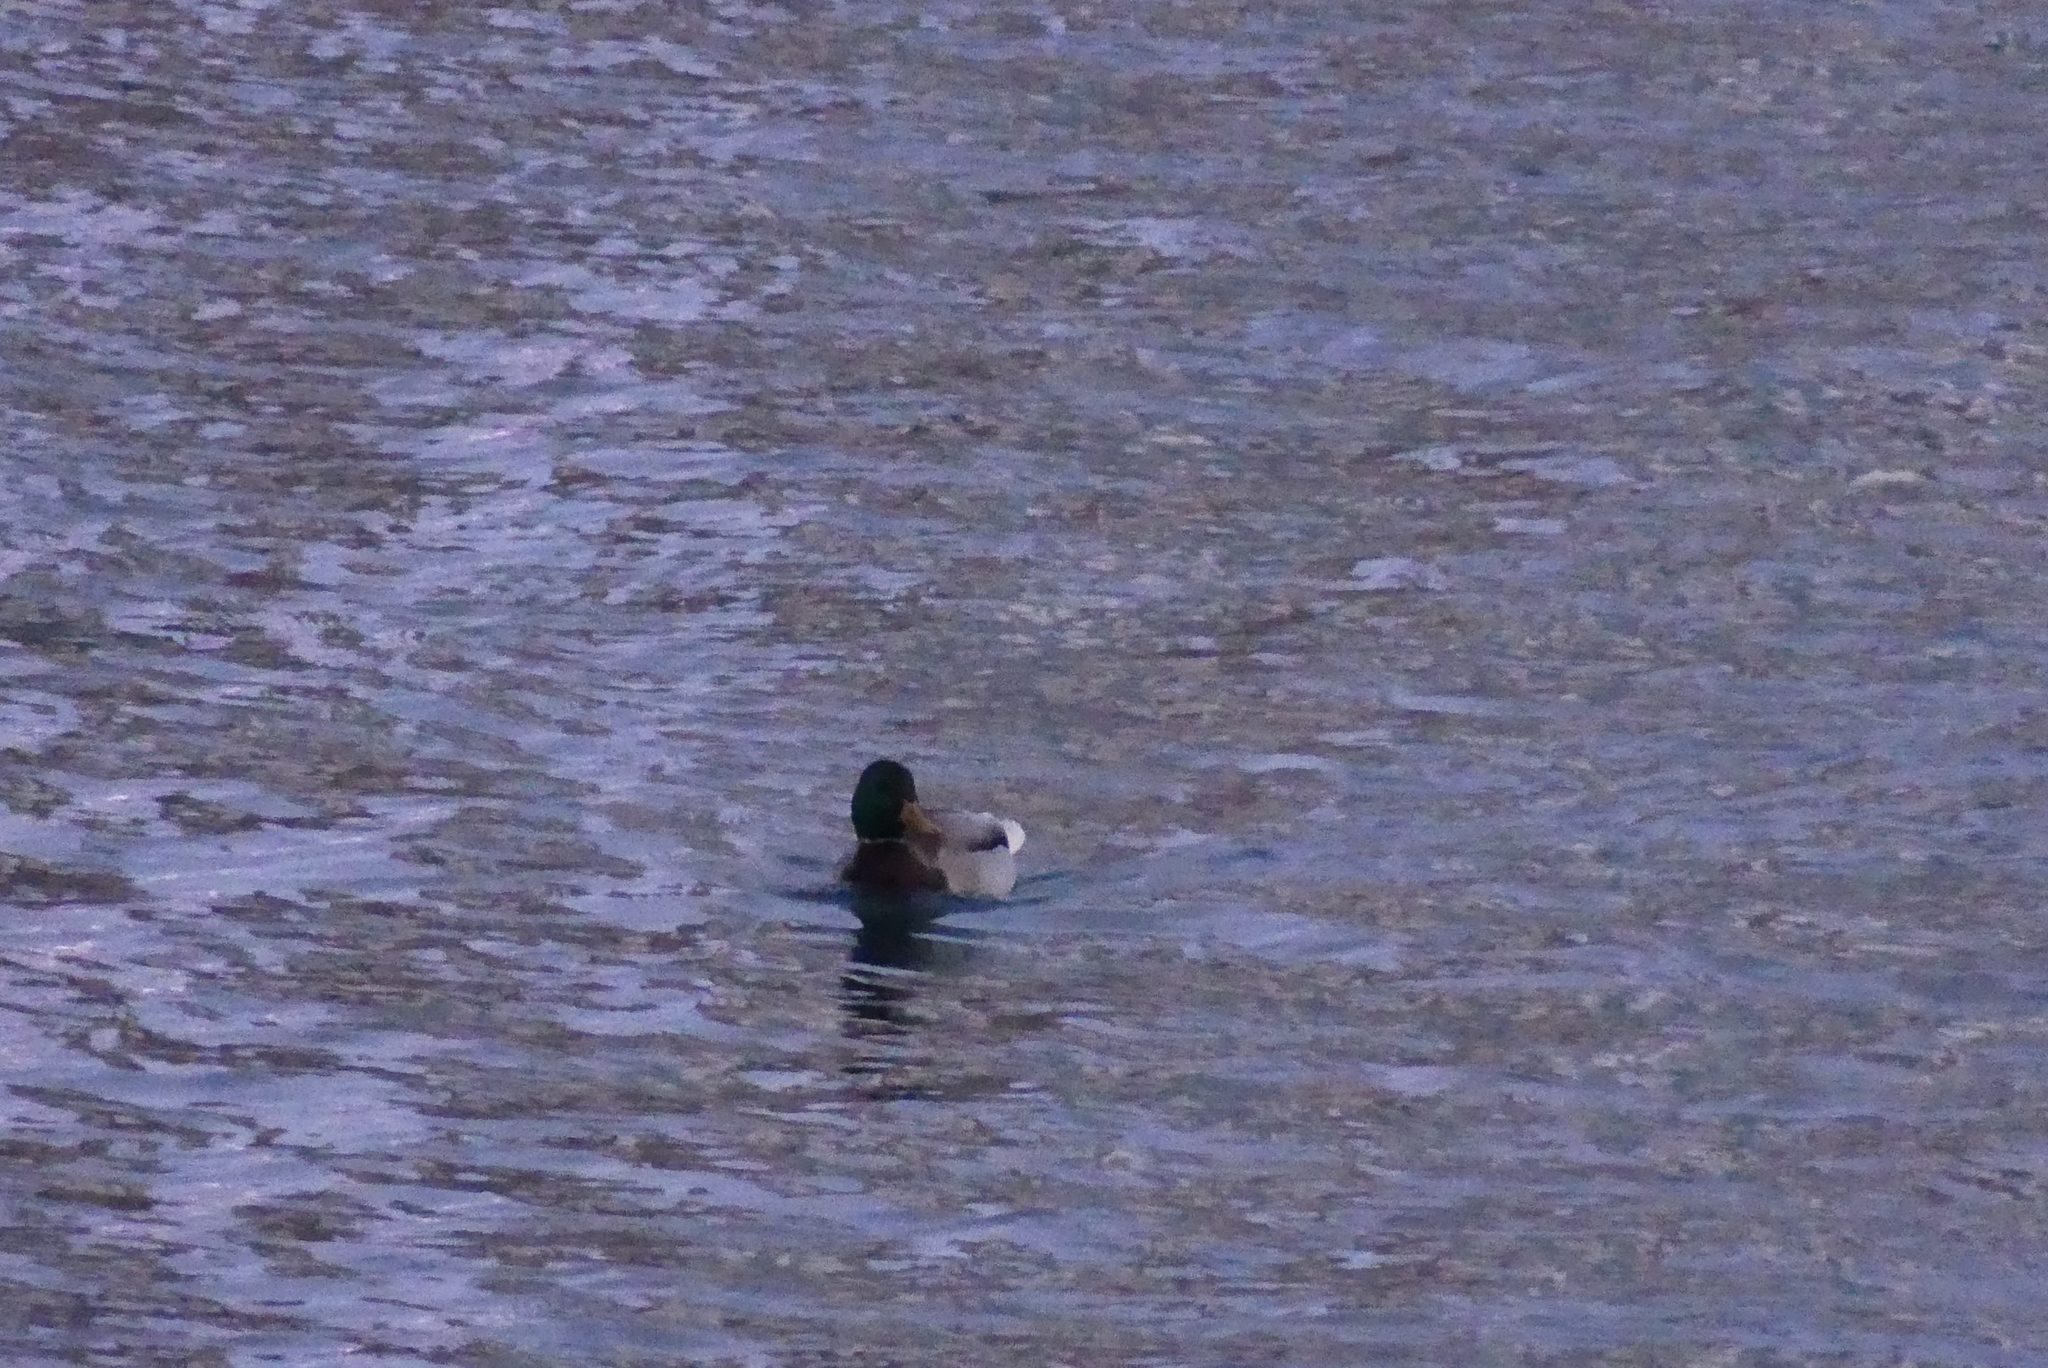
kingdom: Animalia
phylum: Chordata
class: Aves
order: Anseriformes
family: Anatidae
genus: Anas
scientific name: Anas platyrhynchos
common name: Mallard
